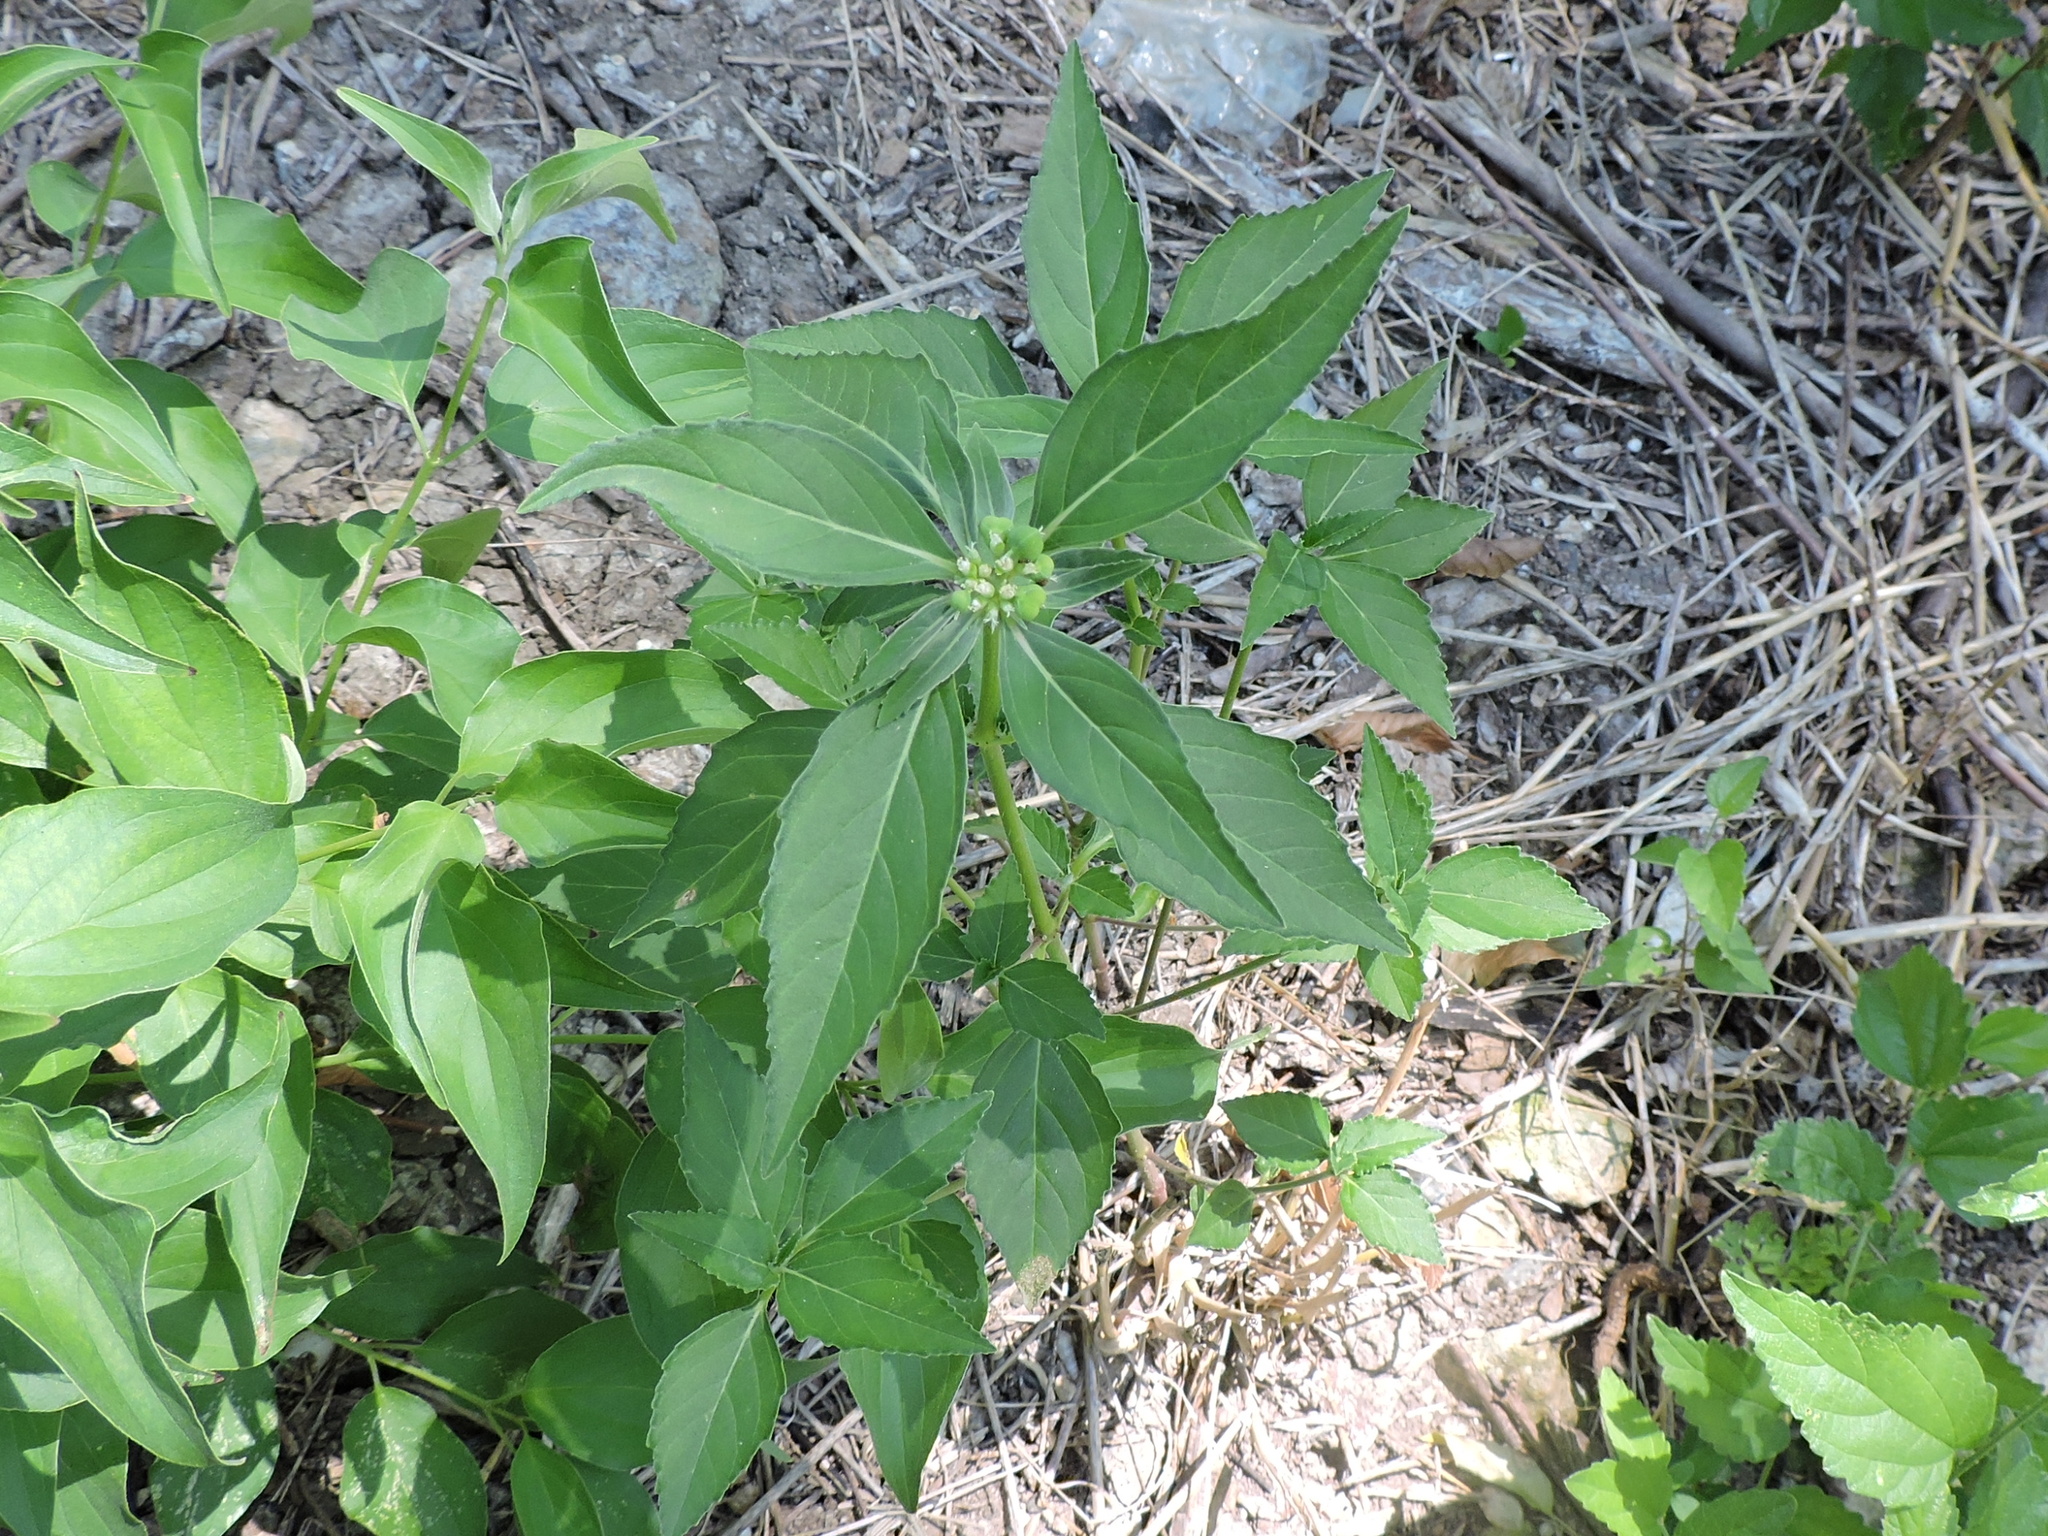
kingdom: Plantae
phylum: Tracheophyta
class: Magnoliopsida
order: Malpighiales
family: Euphorbiaceae
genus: Euphorbia
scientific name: Euphorbia dentata
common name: Dentate spurge
